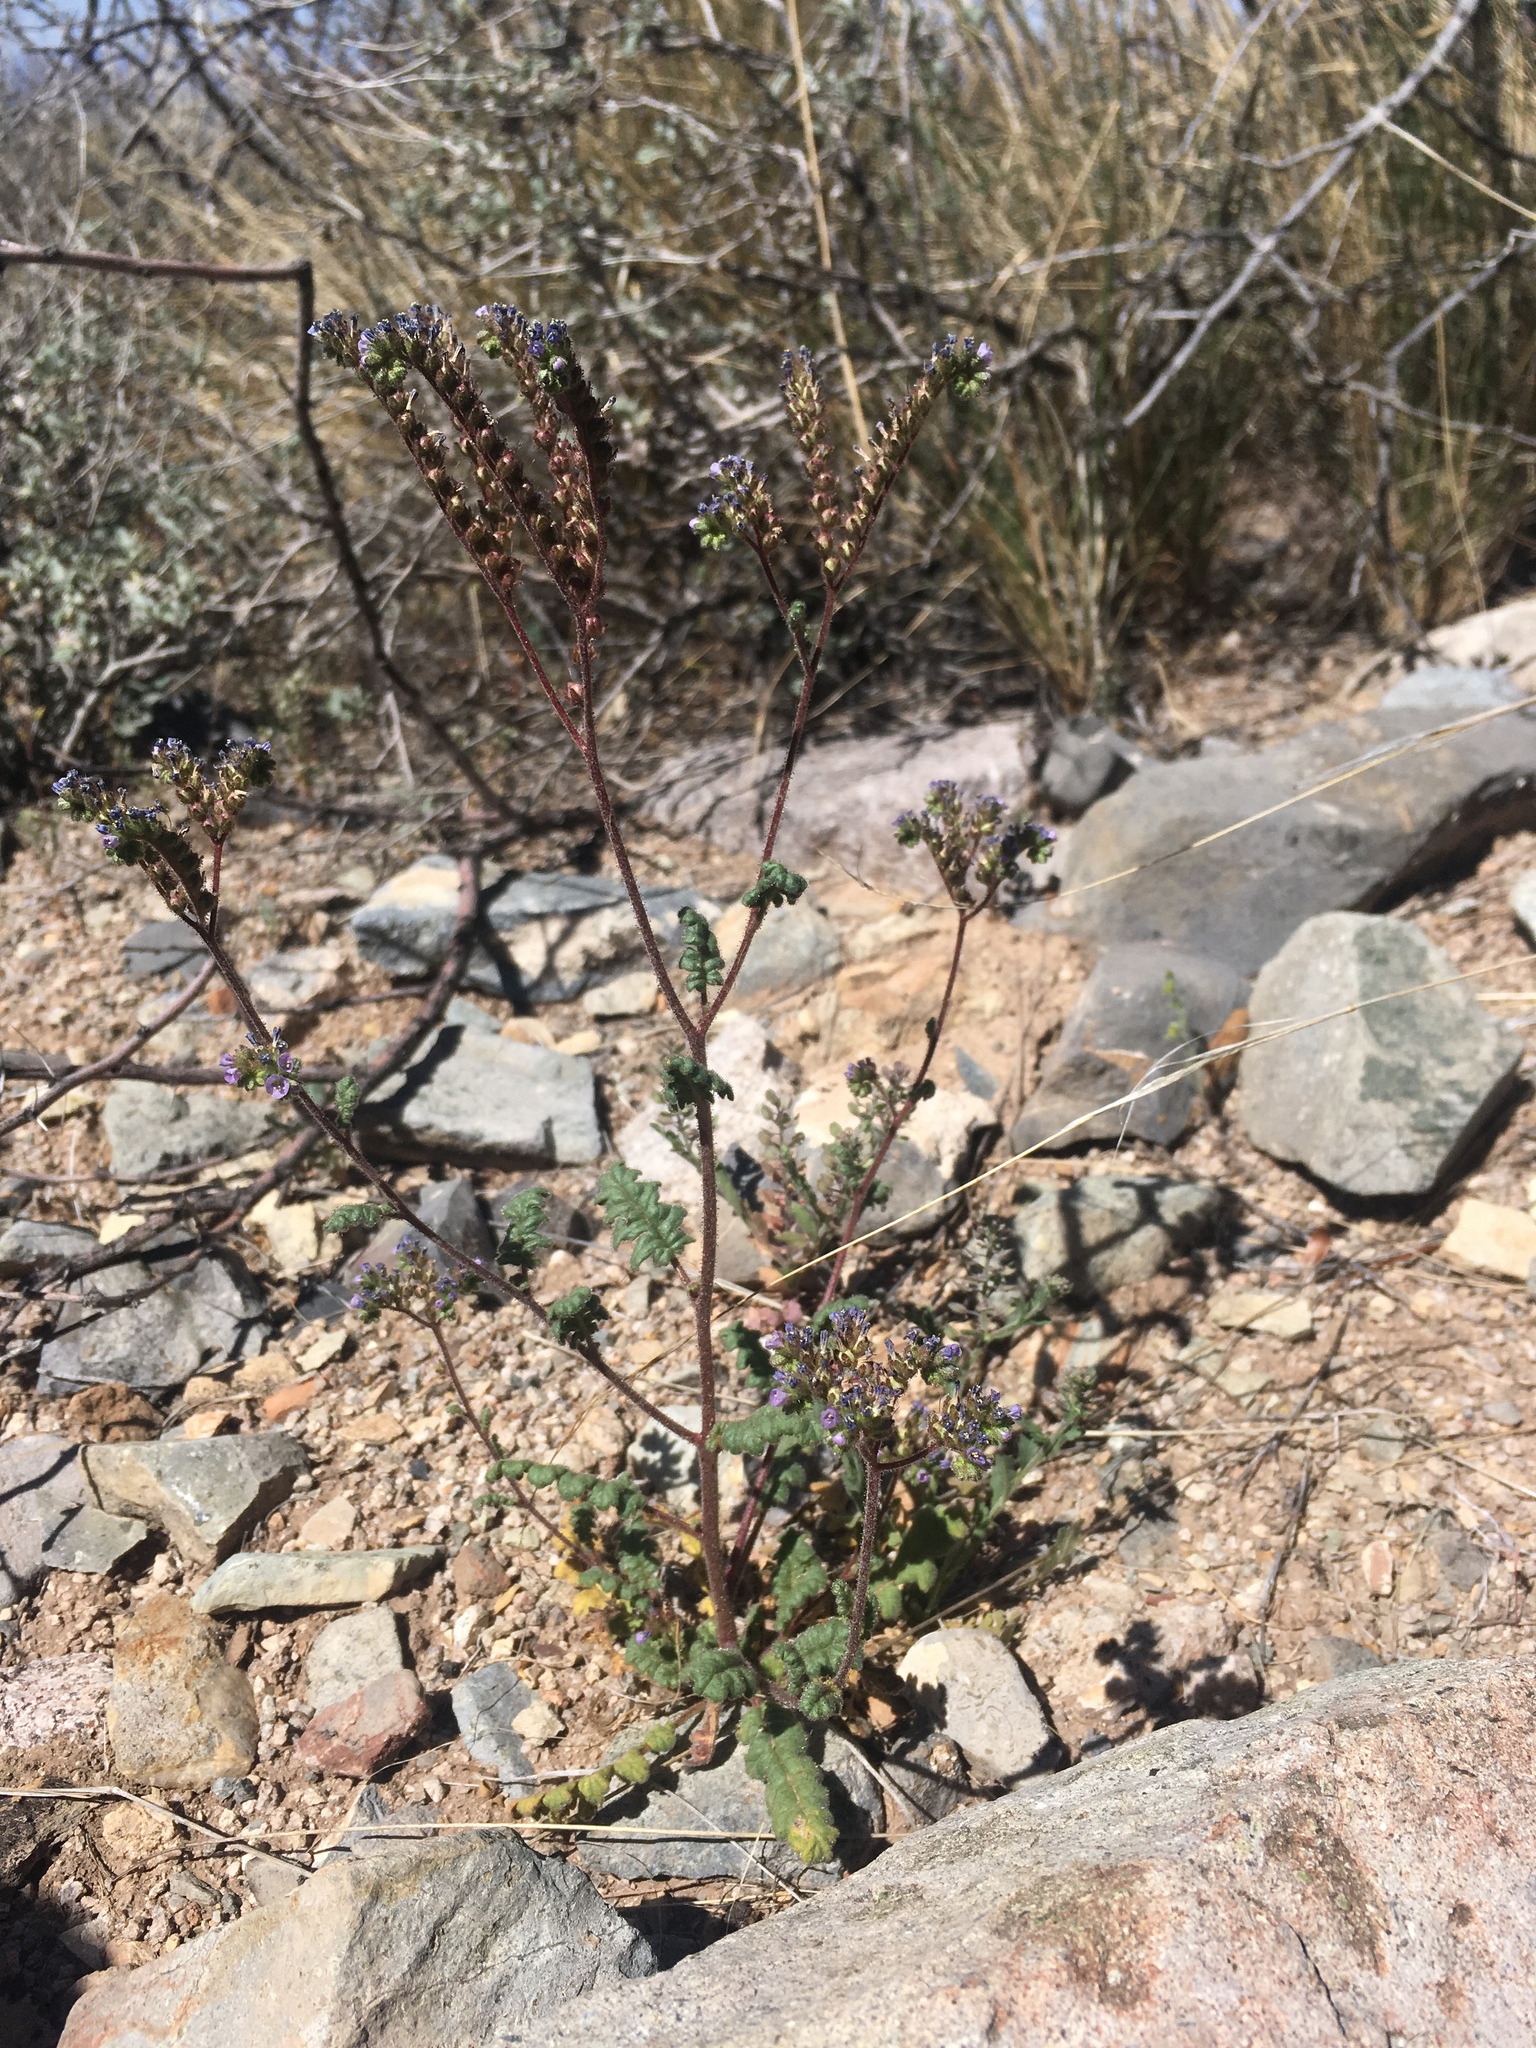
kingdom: Plantae
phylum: Tracheophyta
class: Magnoliopsida
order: Boraginales
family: Hydrophyllaceae
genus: Phacelia
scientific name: Phacelia coerulea
